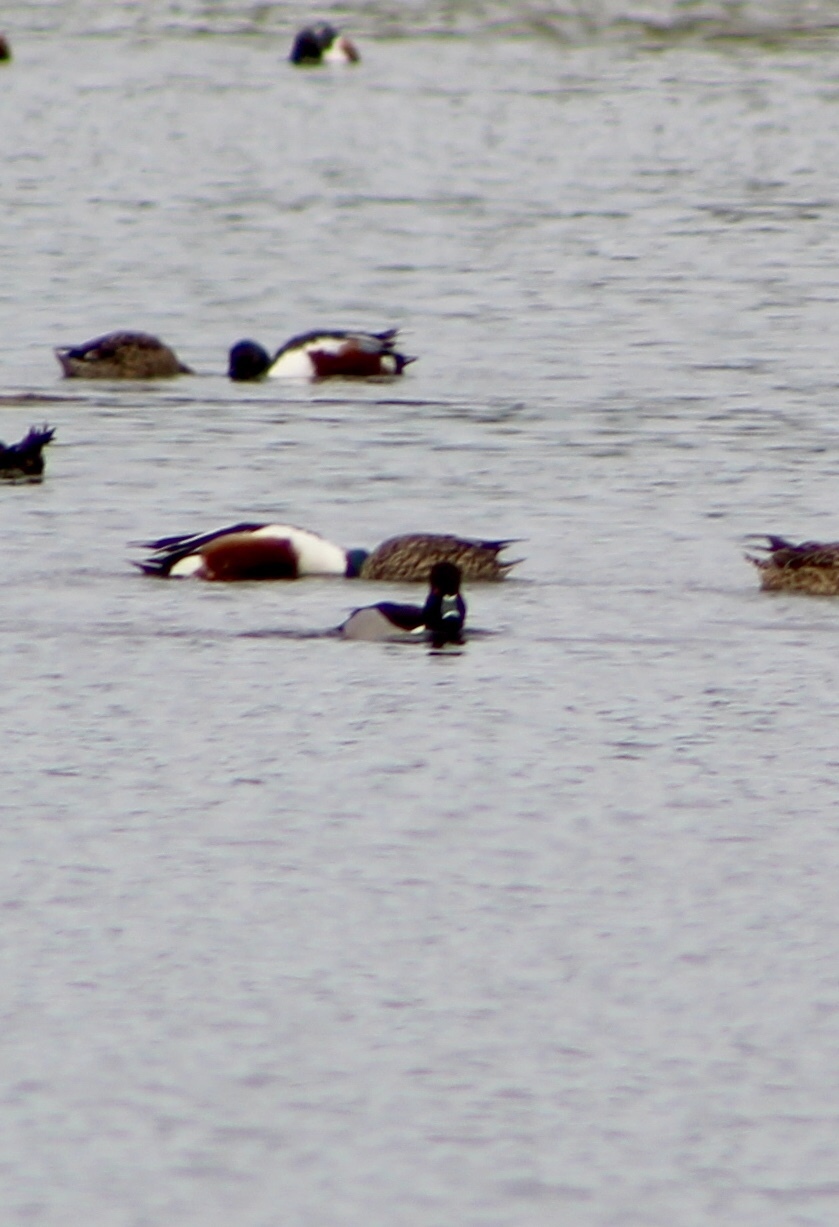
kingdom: Animalia
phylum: Chordata
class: Aves
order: Anseriformes
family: Anatidae
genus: Aythya
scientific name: Aythya collaris
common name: Ring-necked duck
